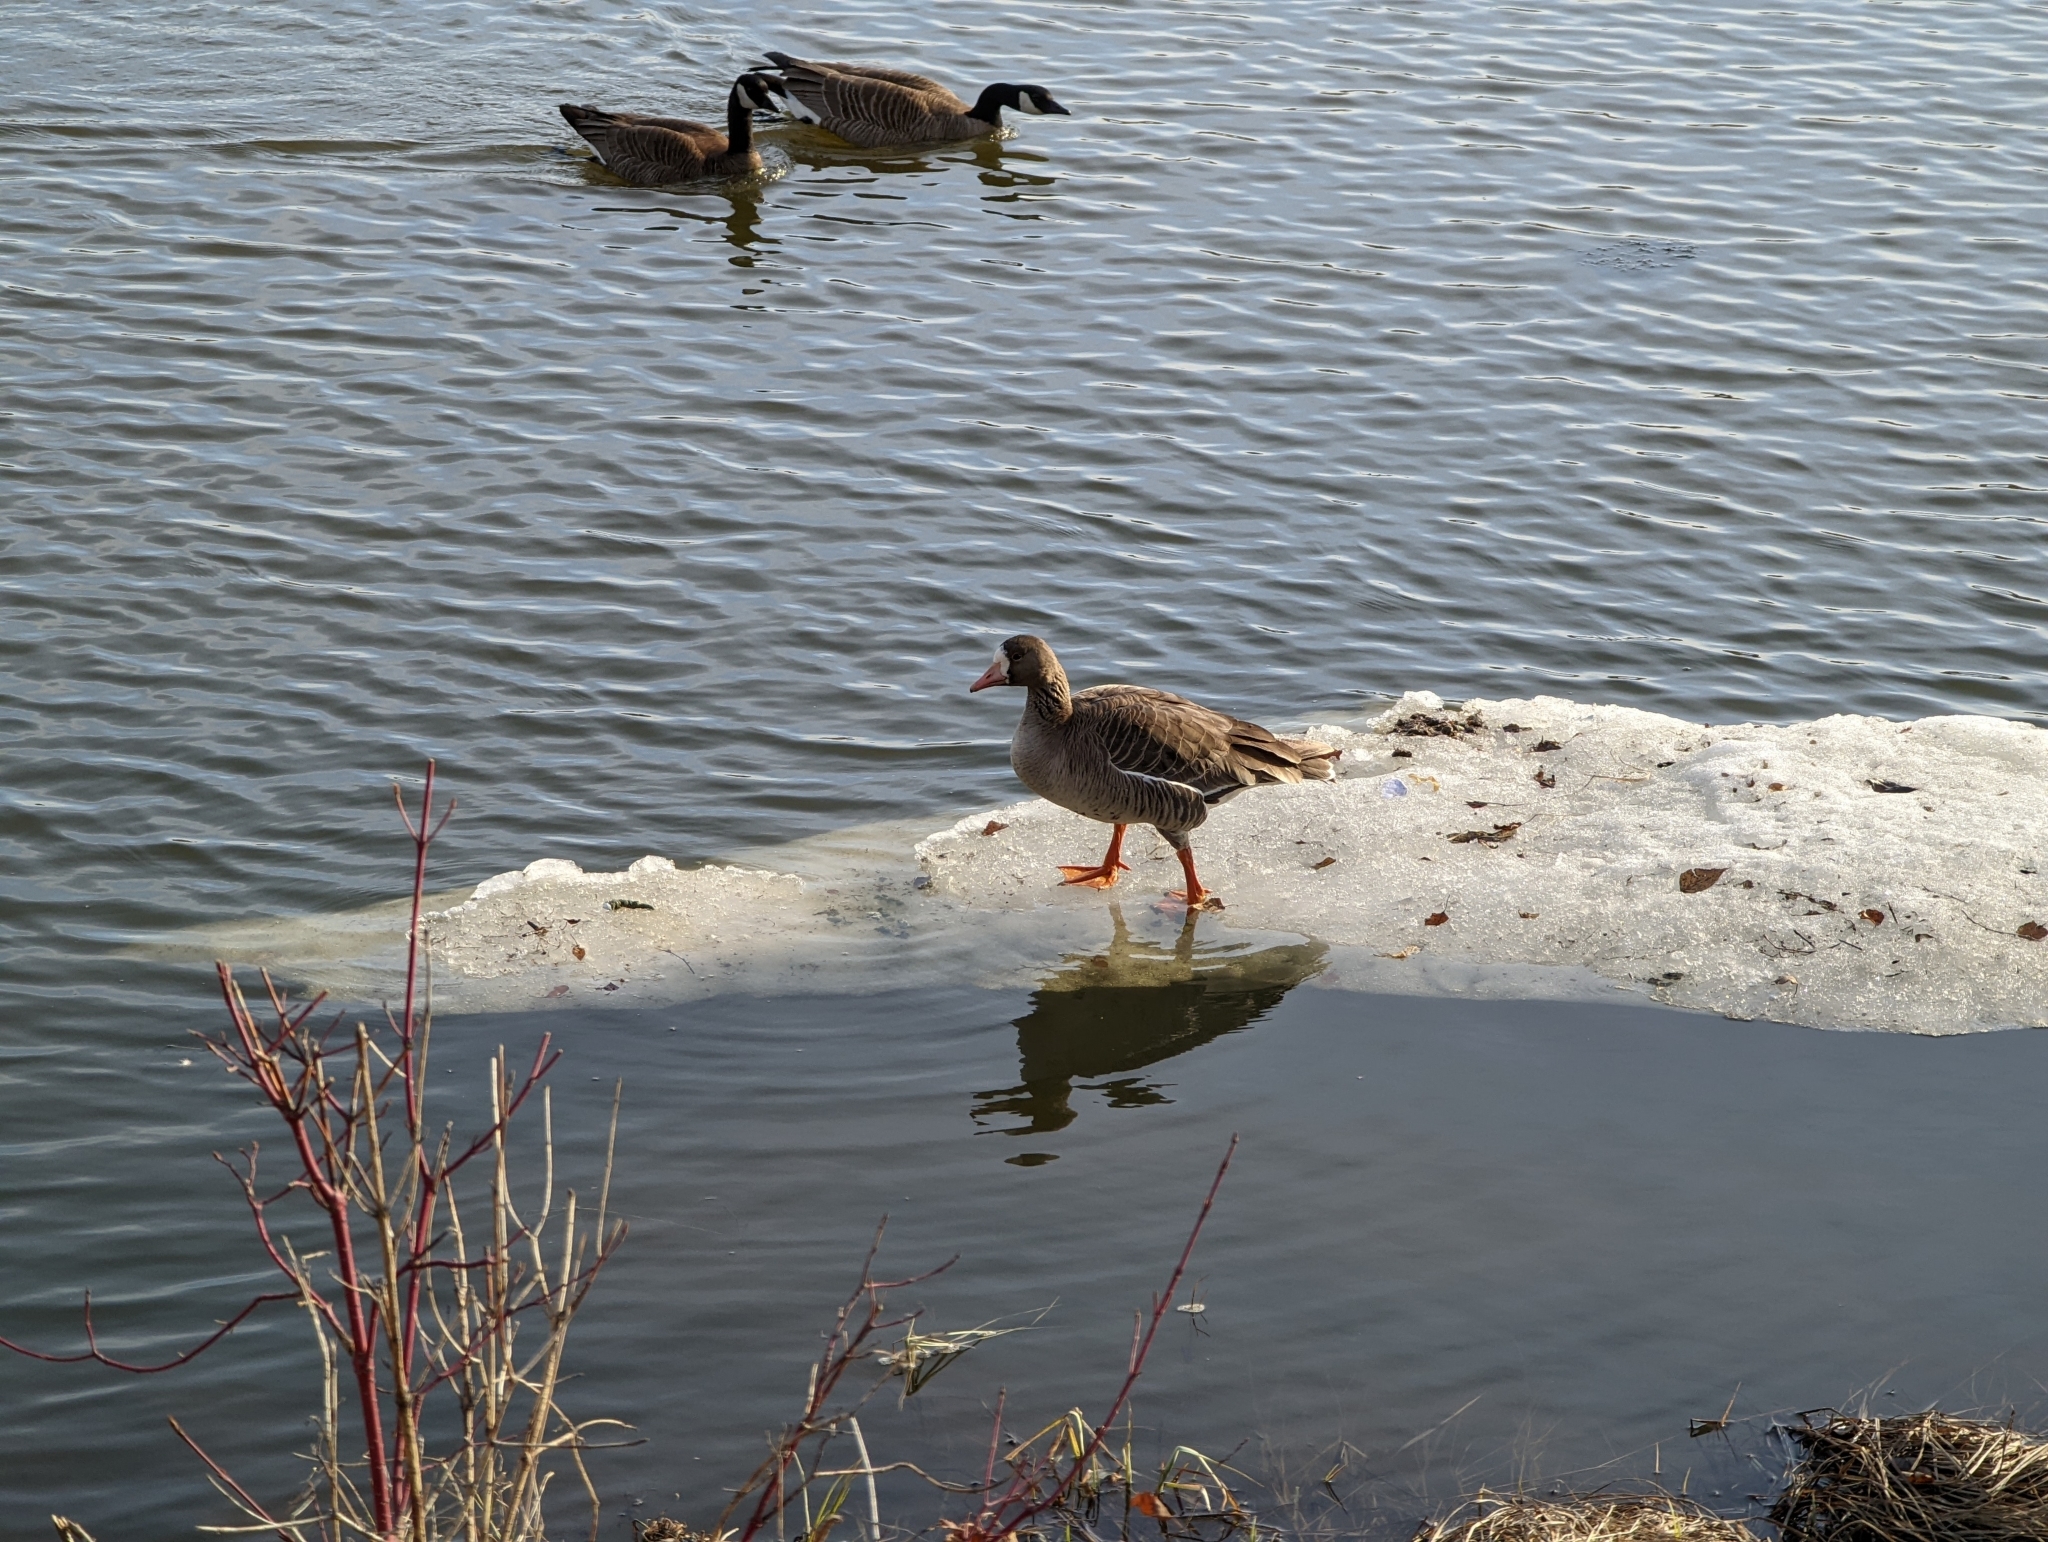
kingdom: Animalia
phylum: Chordata
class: Aves
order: Anseriformes
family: Anatidae
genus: Anser
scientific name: Anser albifrons
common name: Greater white-fronted goose
